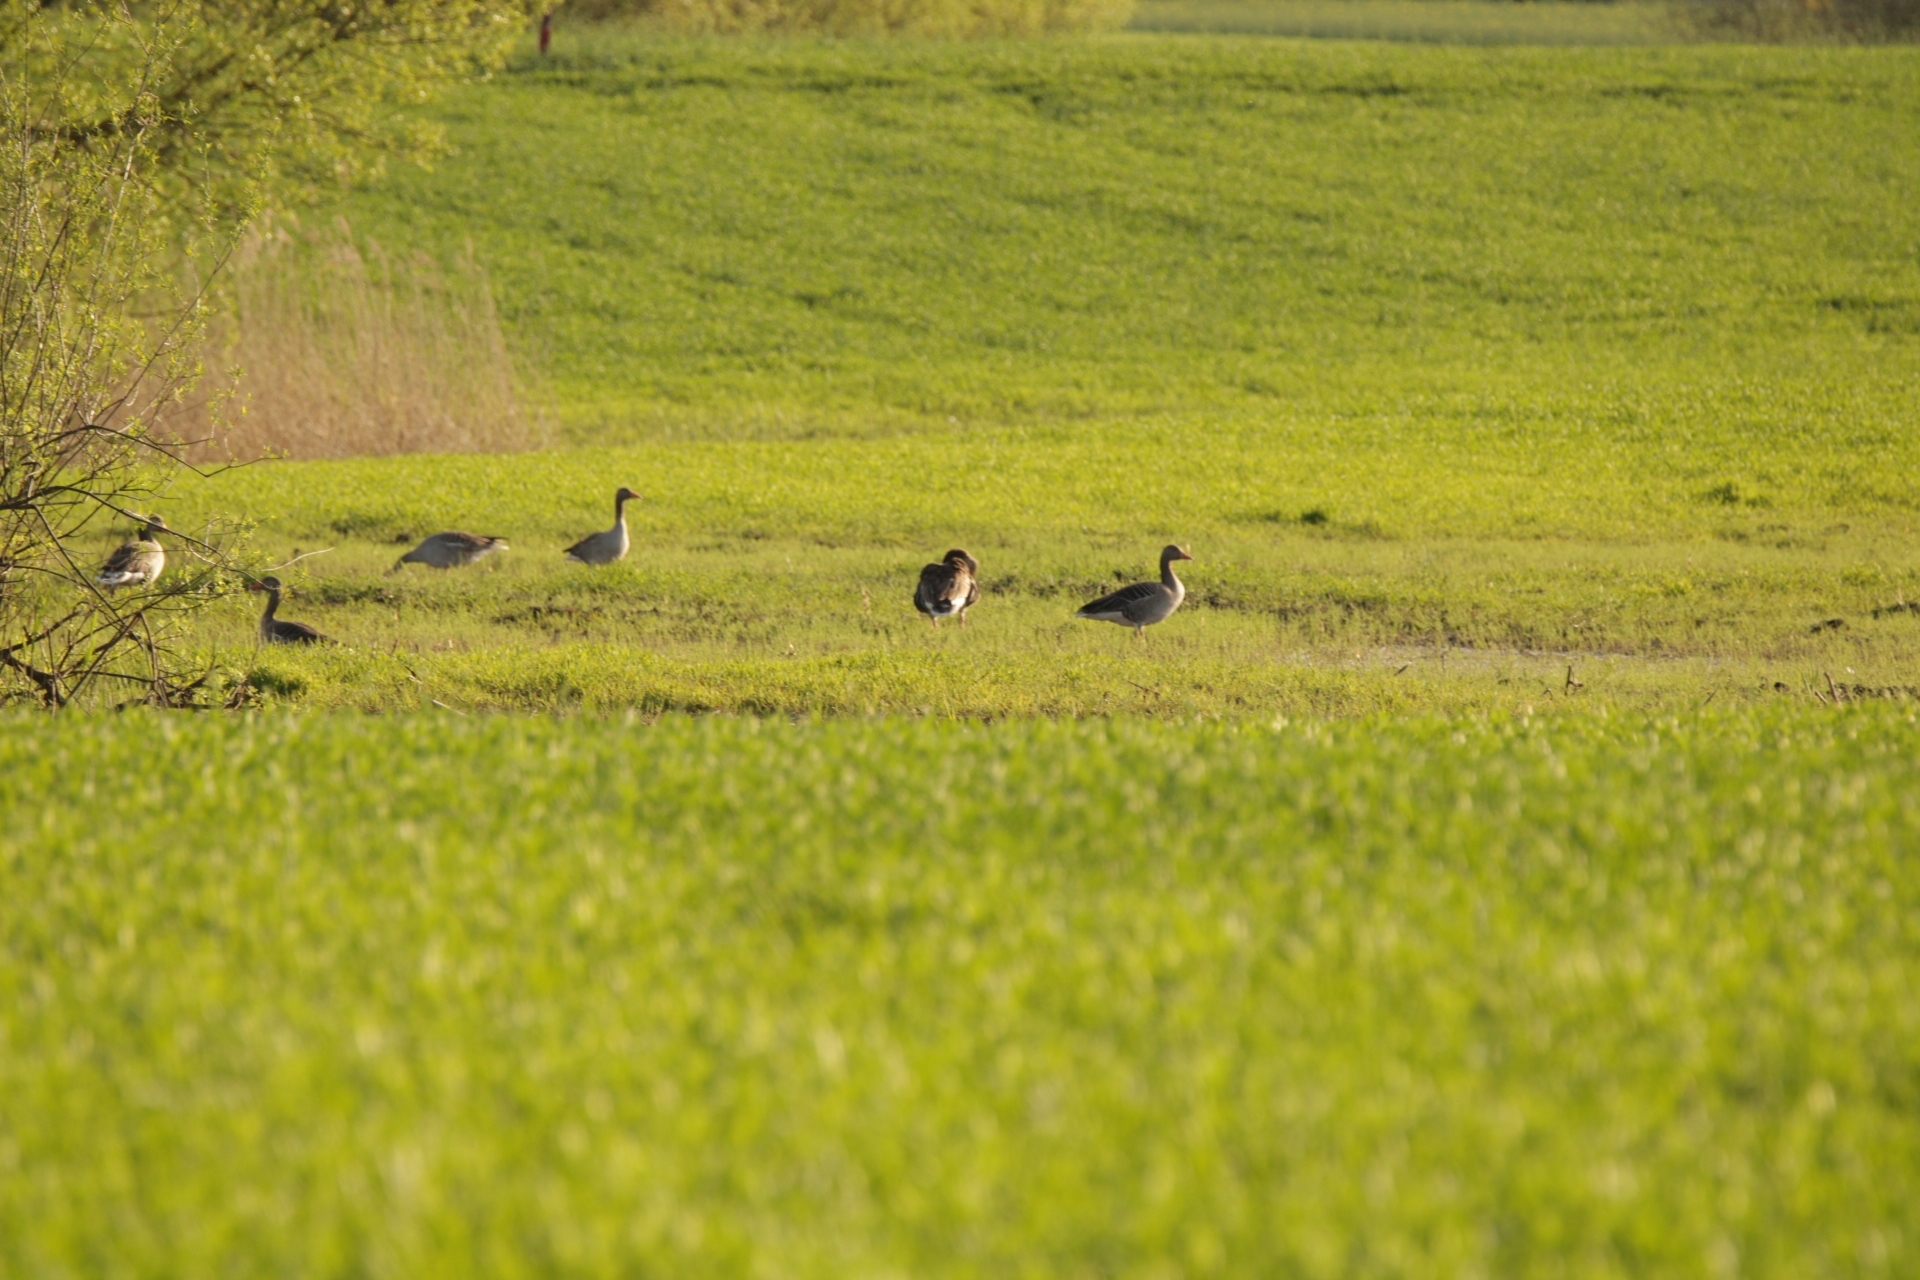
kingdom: Animalia
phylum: Chordata
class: Aves
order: Anseriformes
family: Anatidae
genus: Anser
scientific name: Anser anser
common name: Greylag goose
